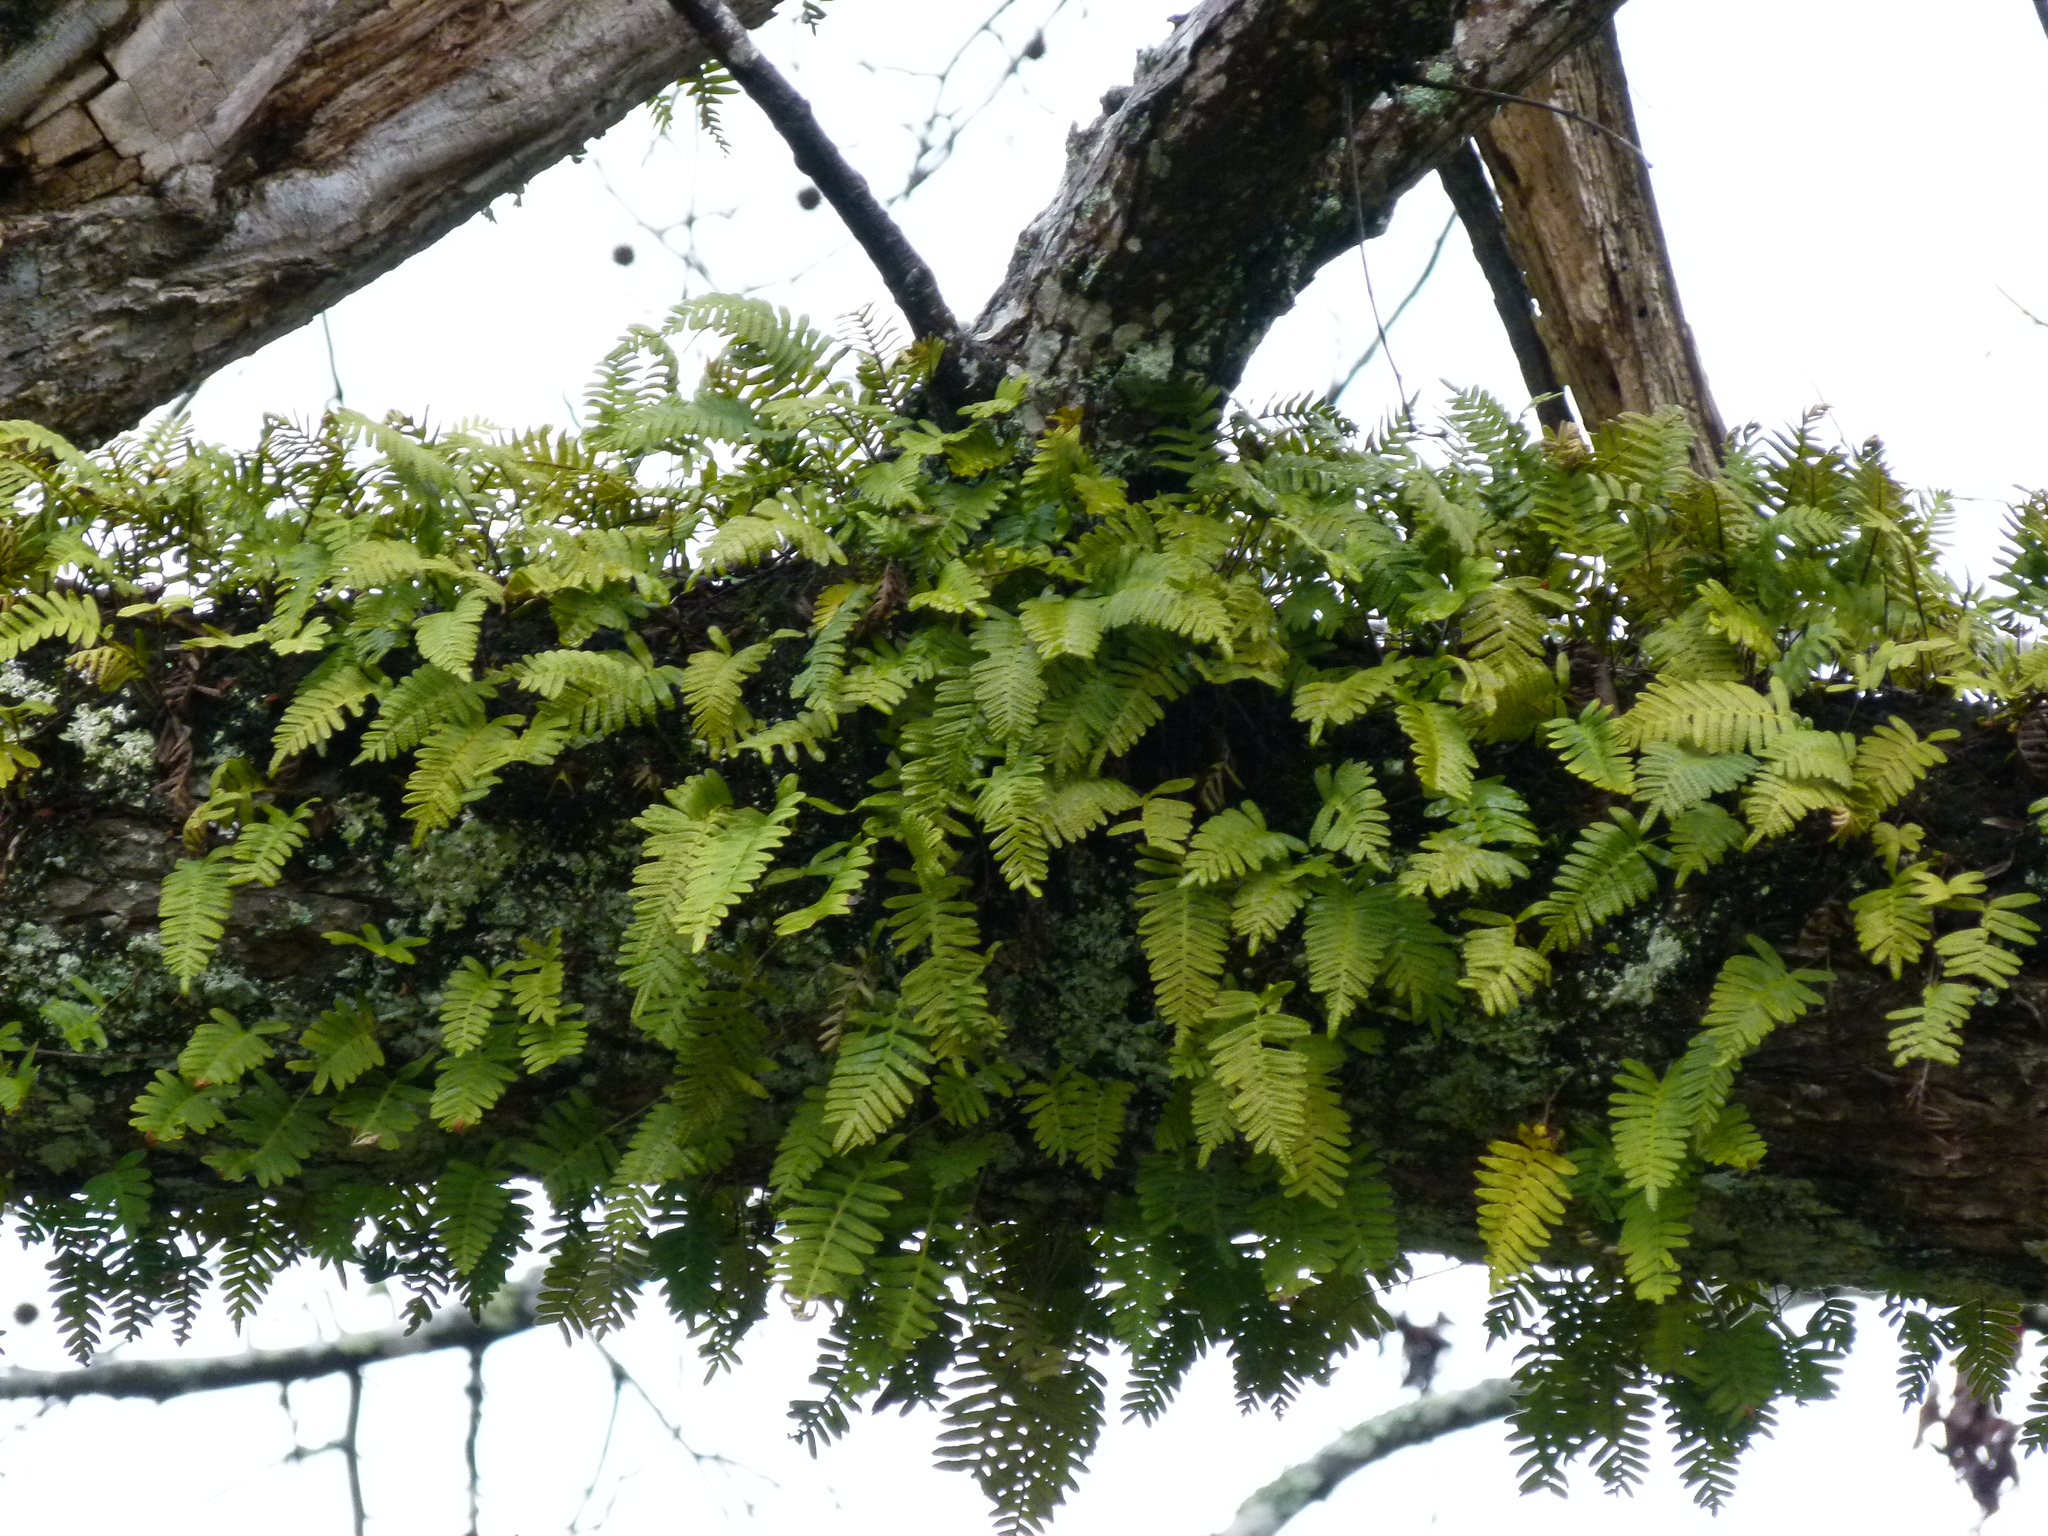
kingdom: Plantae
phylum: Tracheophyta
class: Polypodiopsida
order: Polypodiales
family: Polypodiaceae
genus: Pleopeltis
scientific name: Pleopeltis michauxiana
